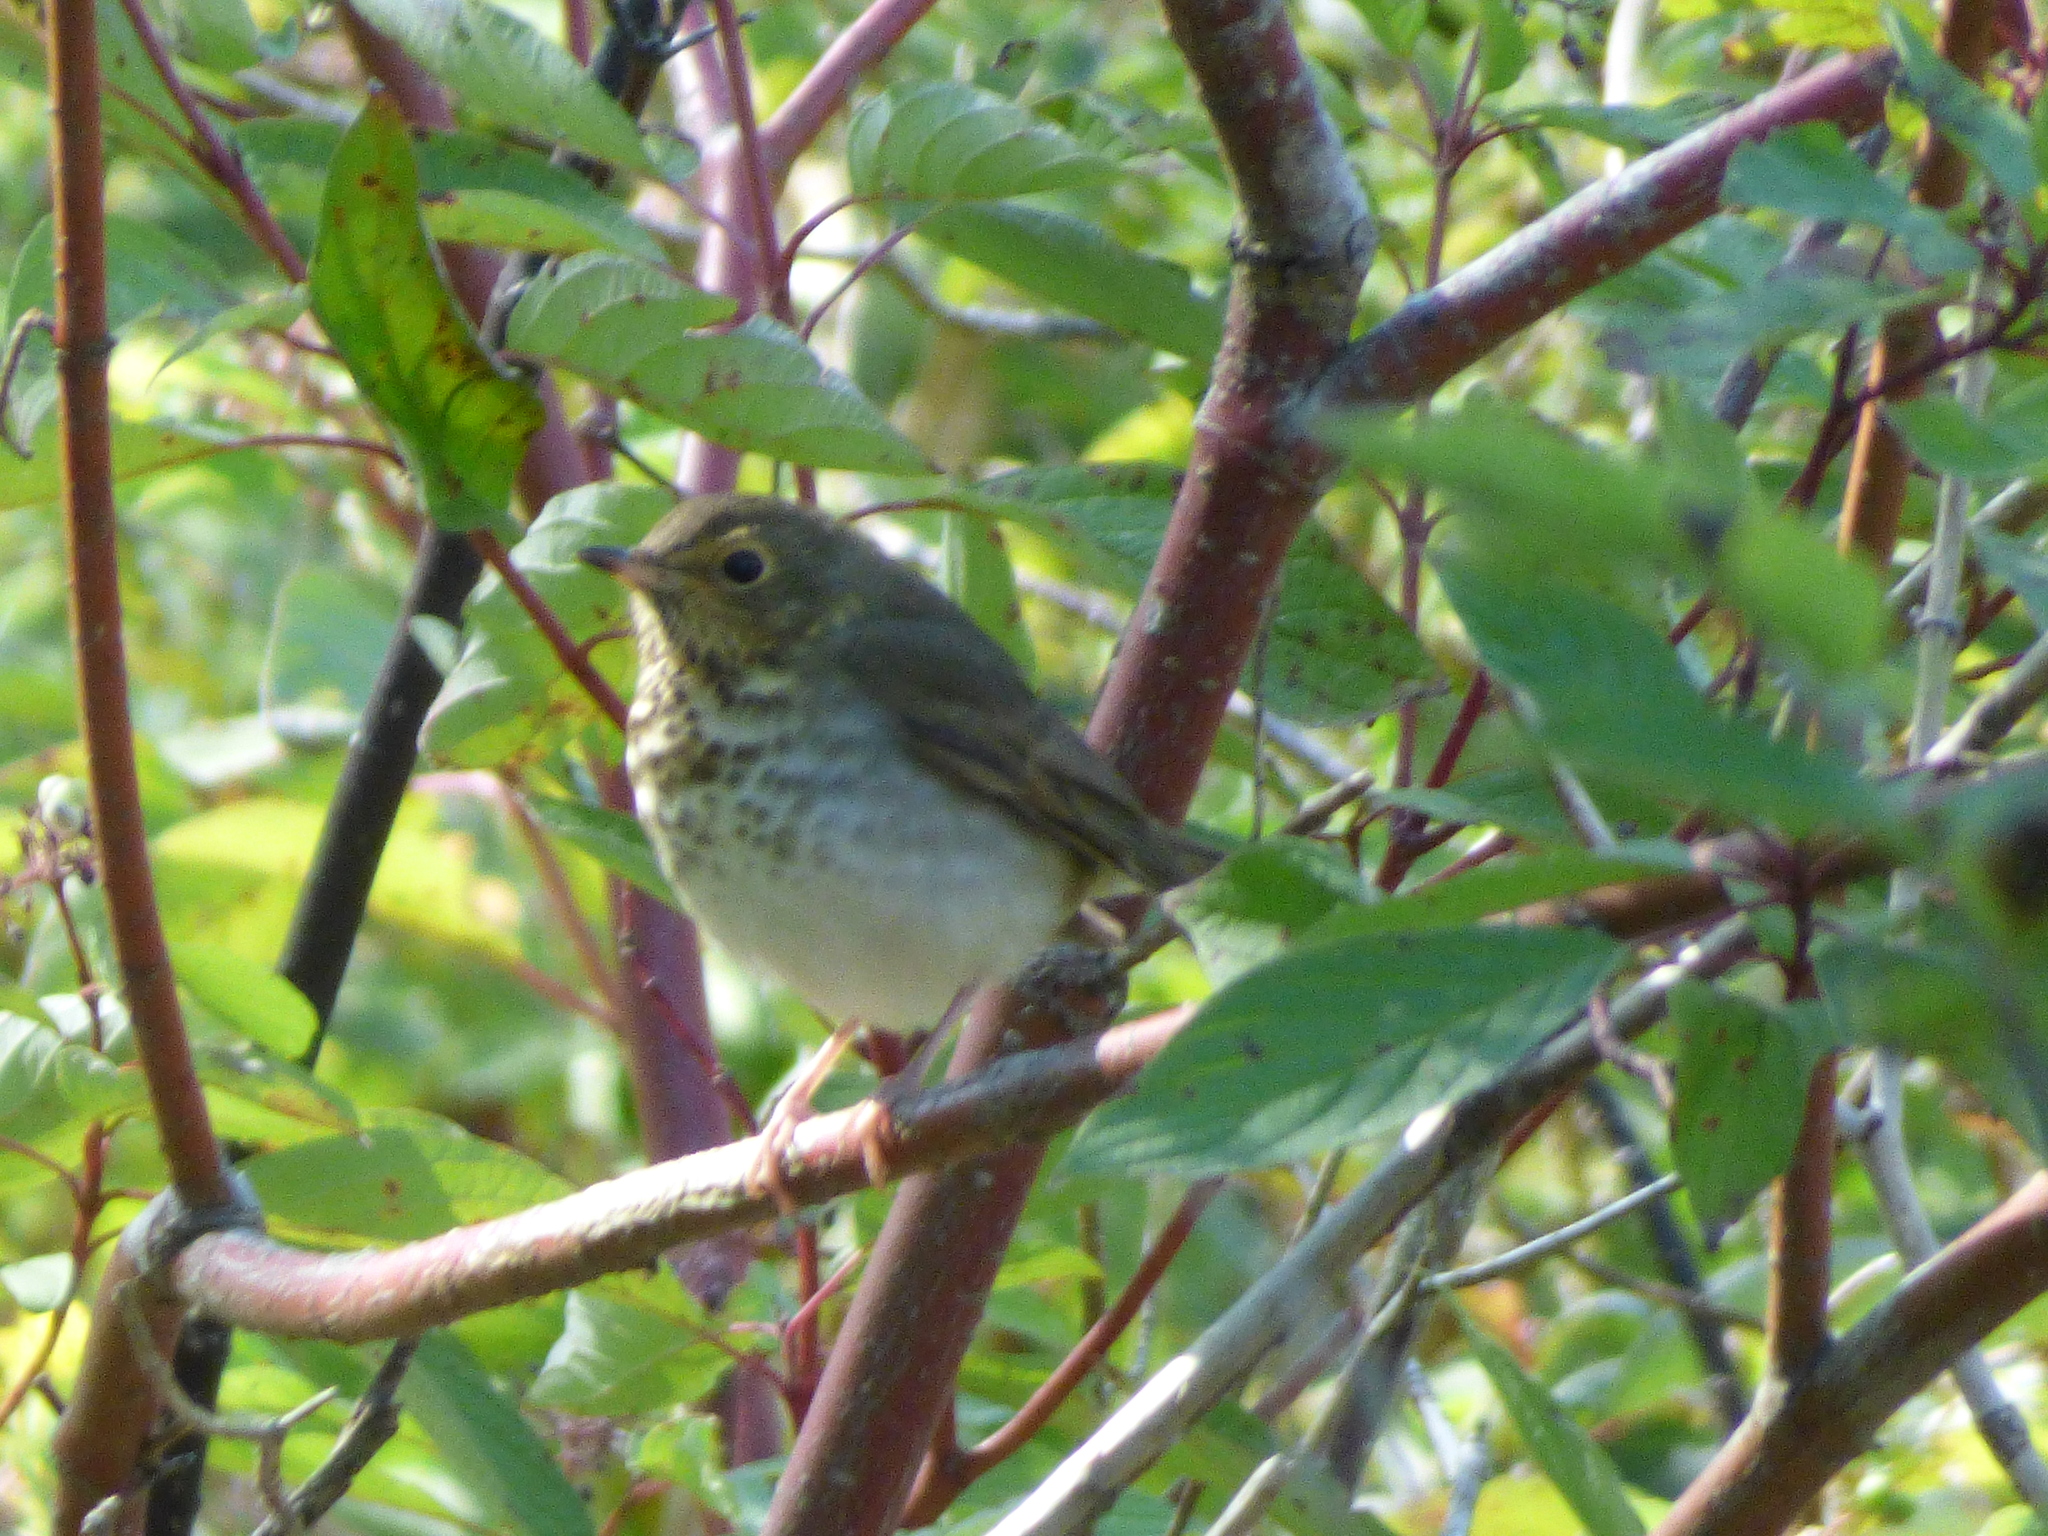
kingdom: Animalia
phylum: Chordata
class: Aves
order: Passeriformes
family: Turdidae
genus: Catharus
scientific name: Catharus ustulatus
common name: Swainson's thrush
